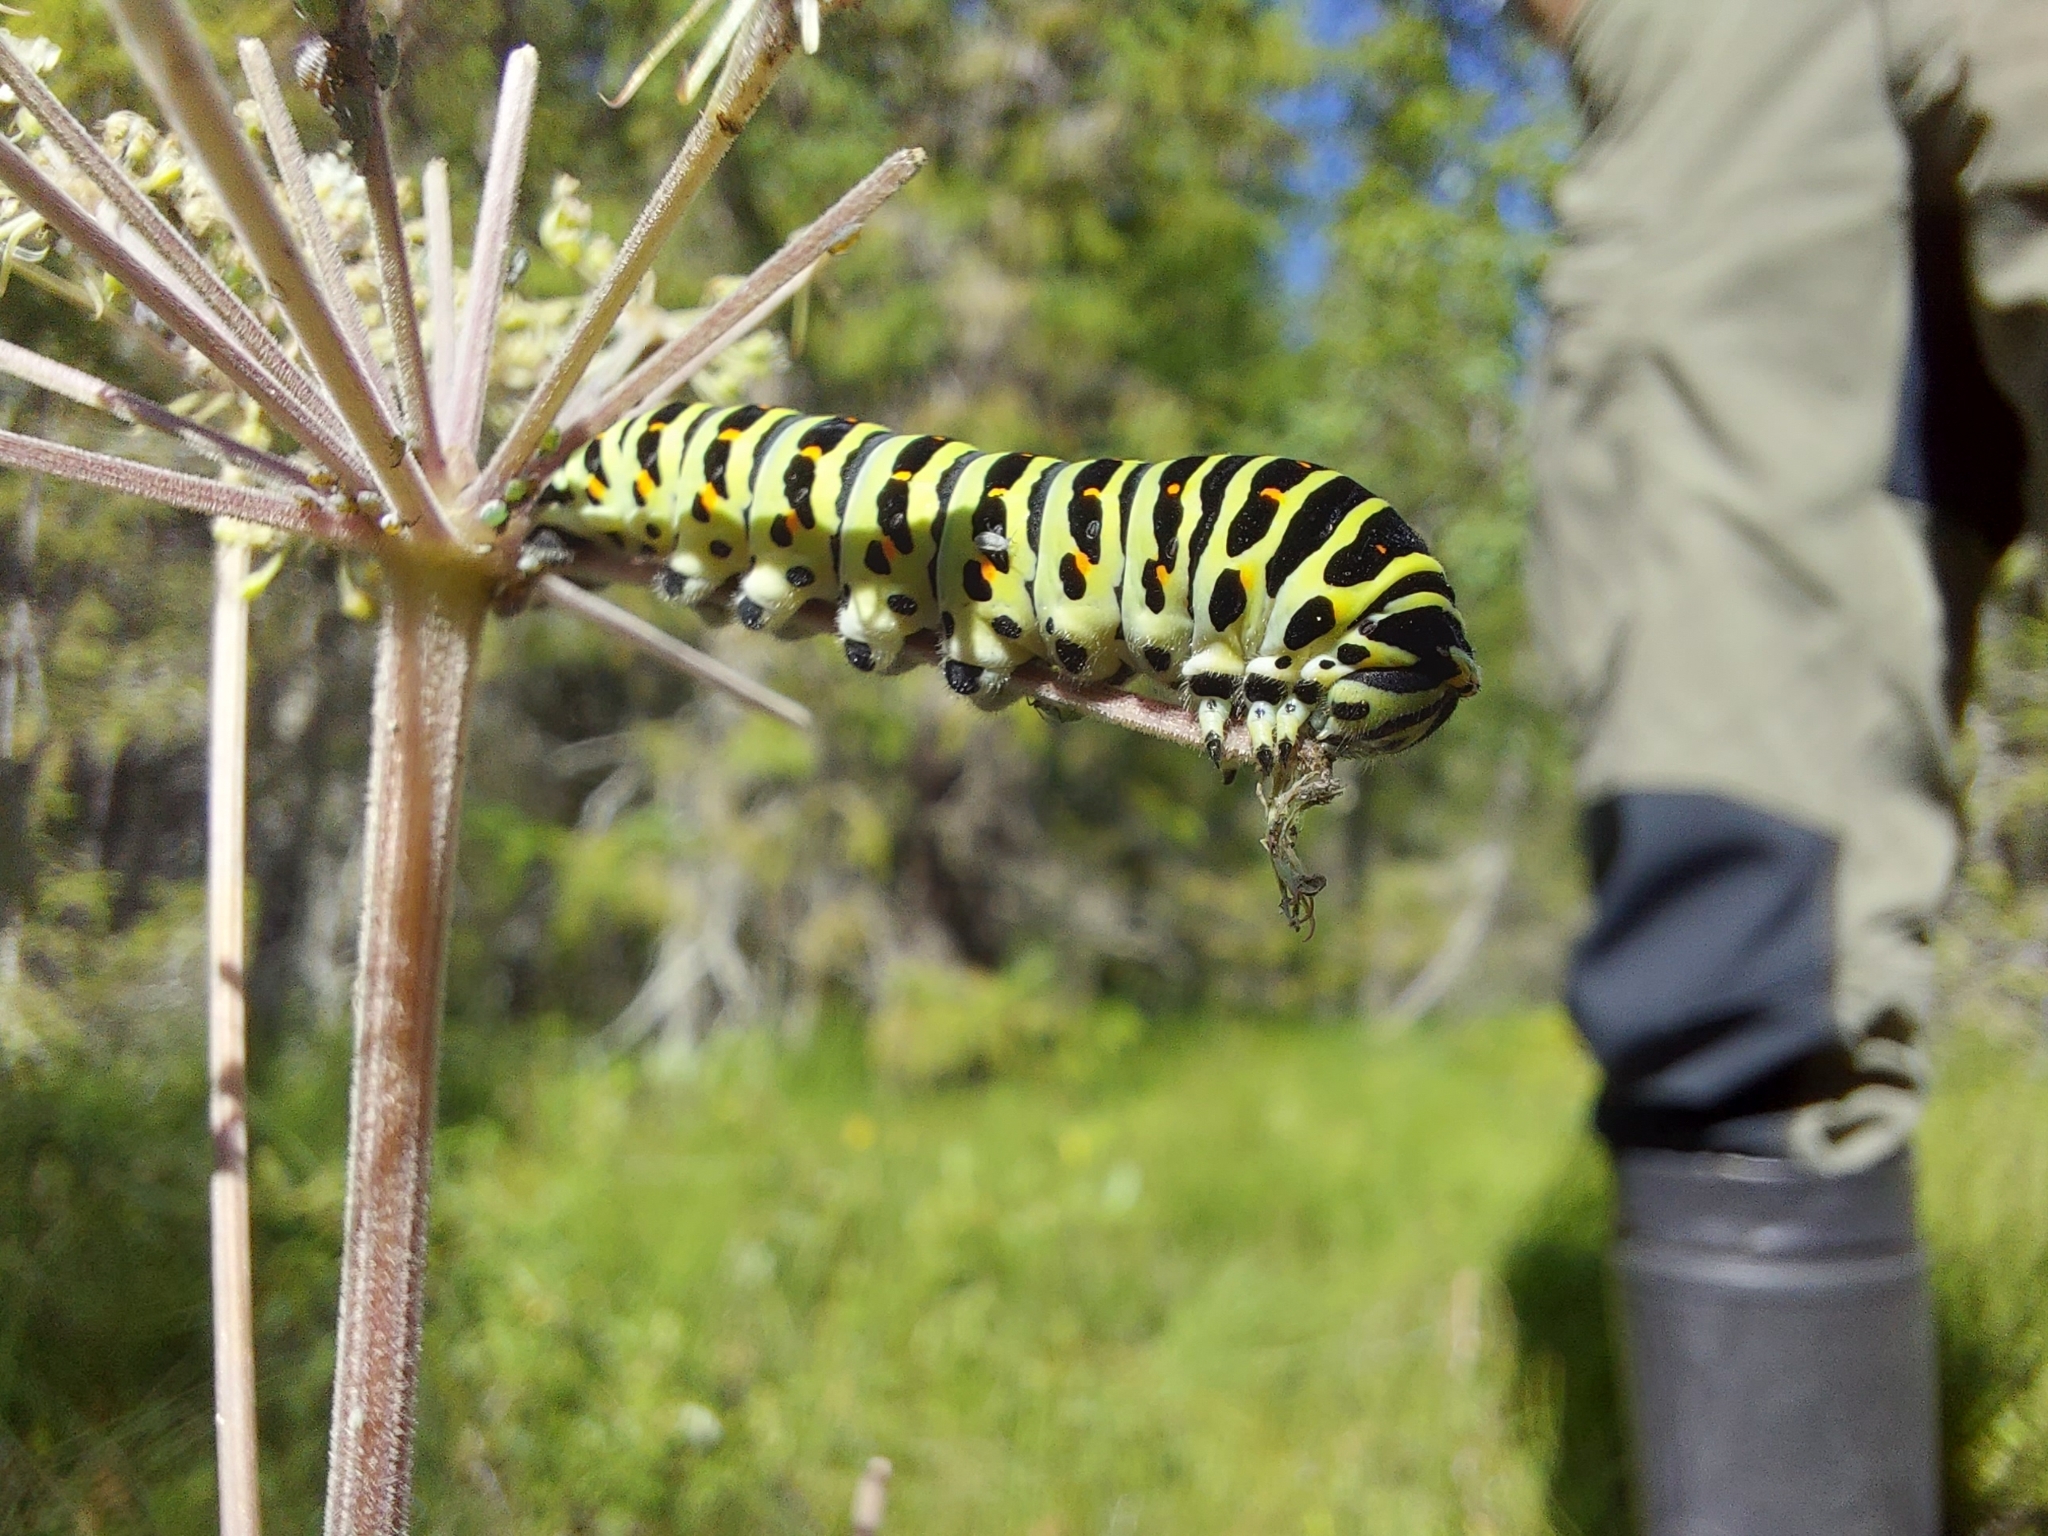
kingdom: Animalia
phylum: Arthropoda
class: Insecta
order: Lepidoptera
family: Papilionidae
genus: Papilio
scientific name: Papilio machaon
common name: Swallowtail
